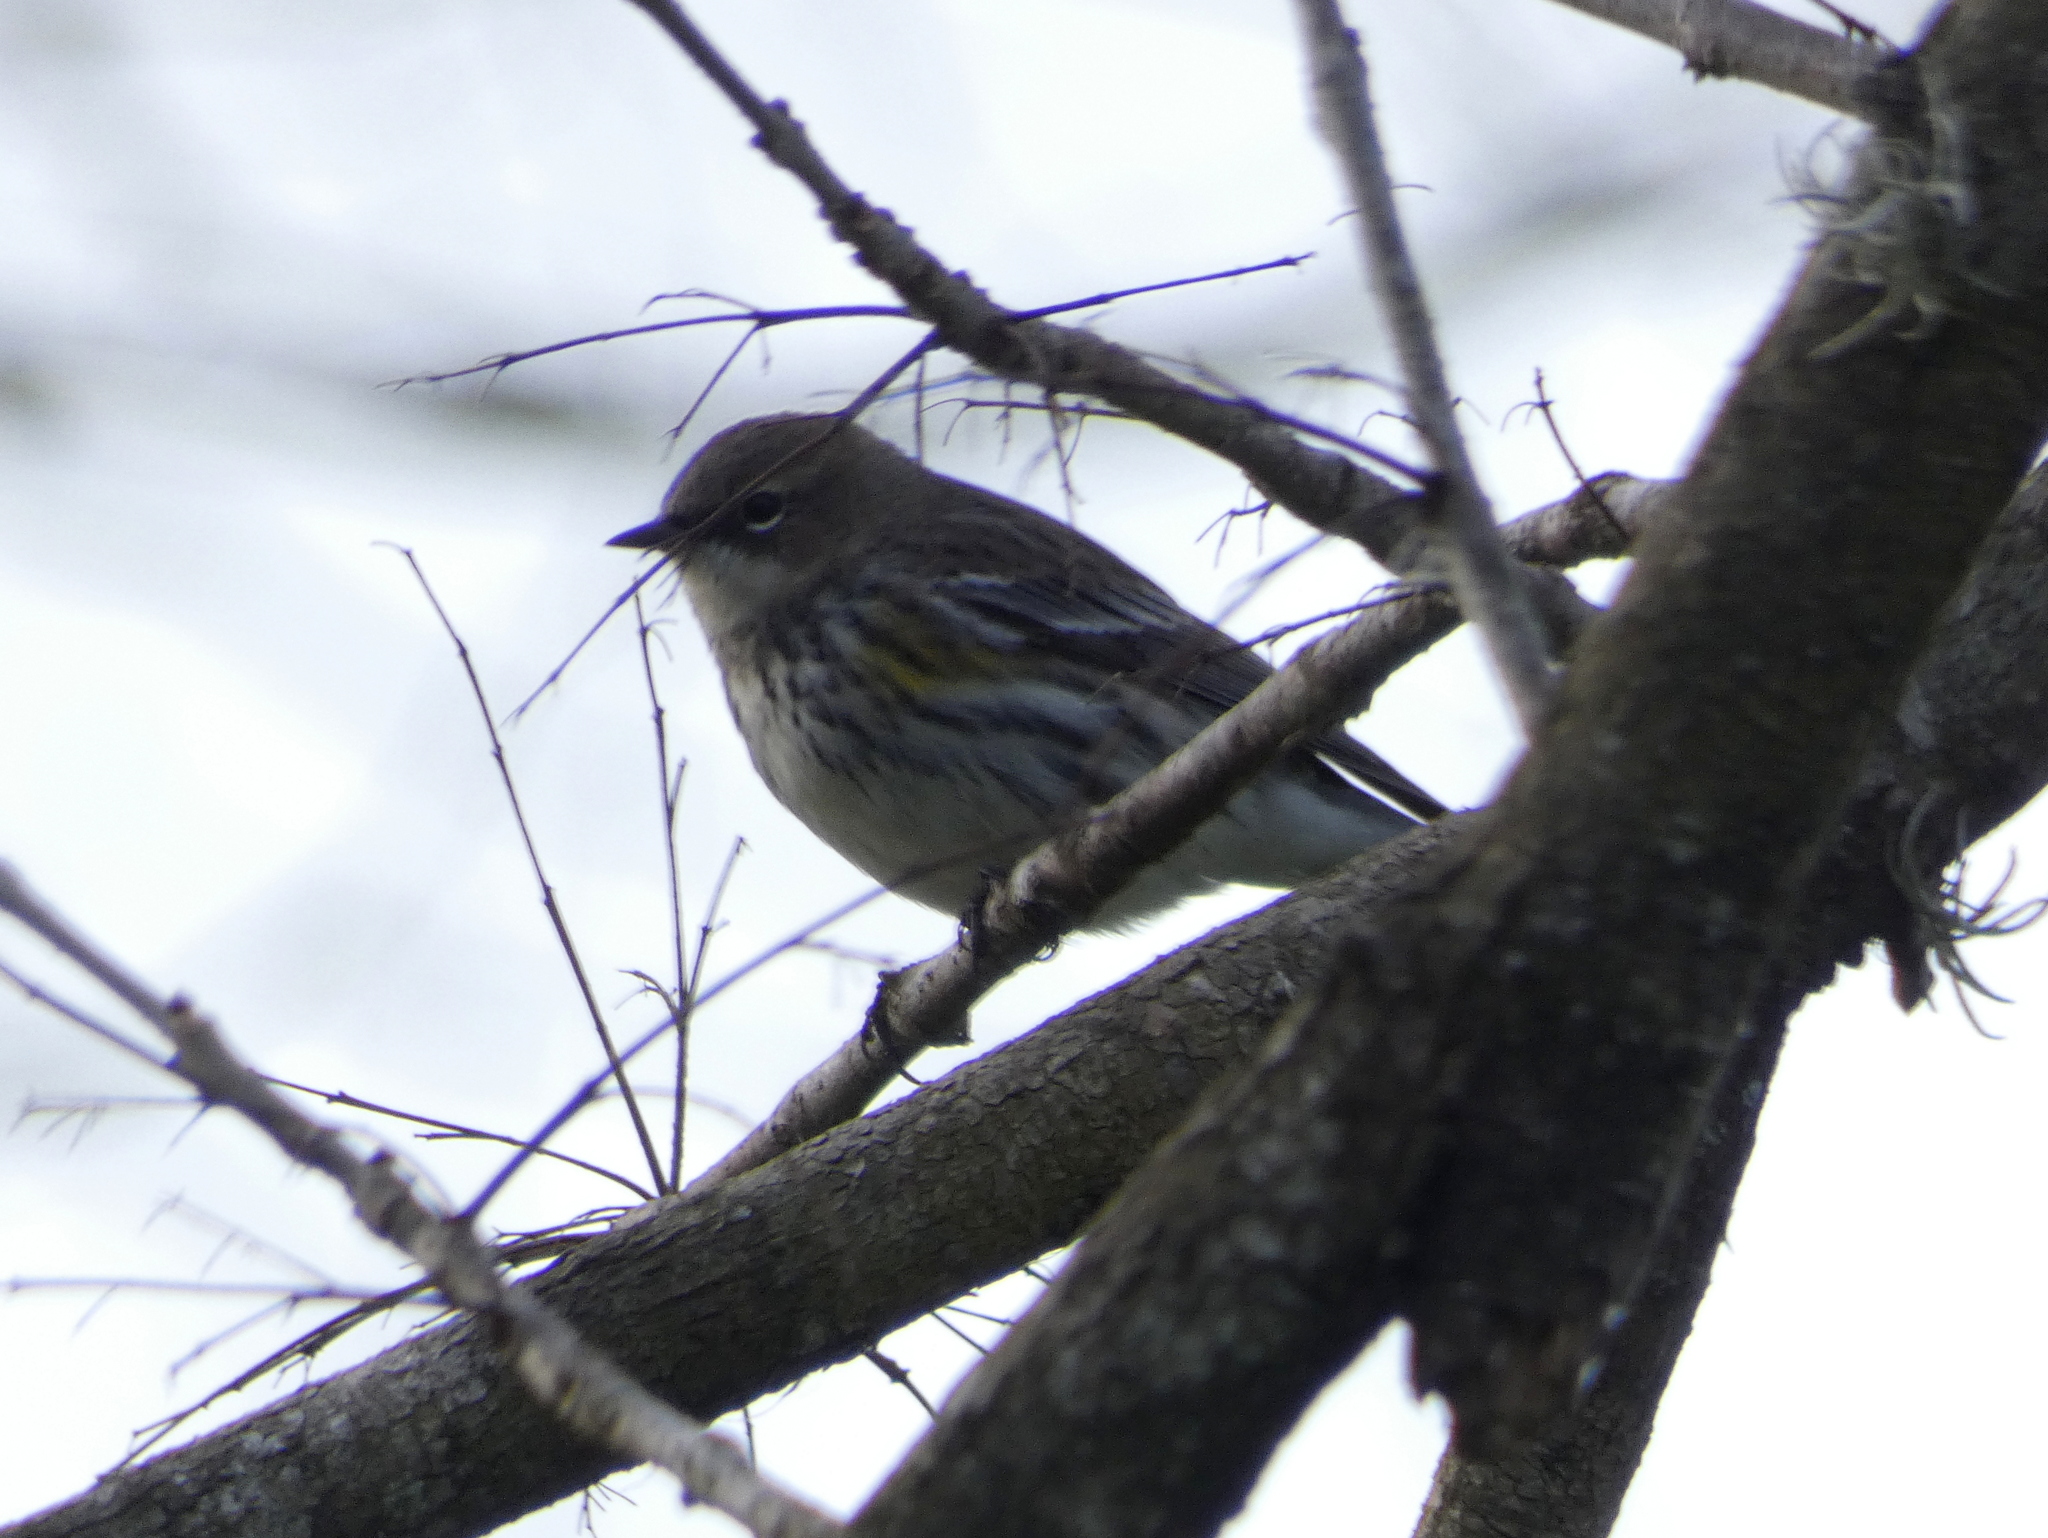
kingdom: Animalia
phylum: Chordata
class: Aves
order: Passeriformes
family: Parulidae
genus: Setophaga
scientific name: Setophaga coronata
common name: Myrtle warbler
